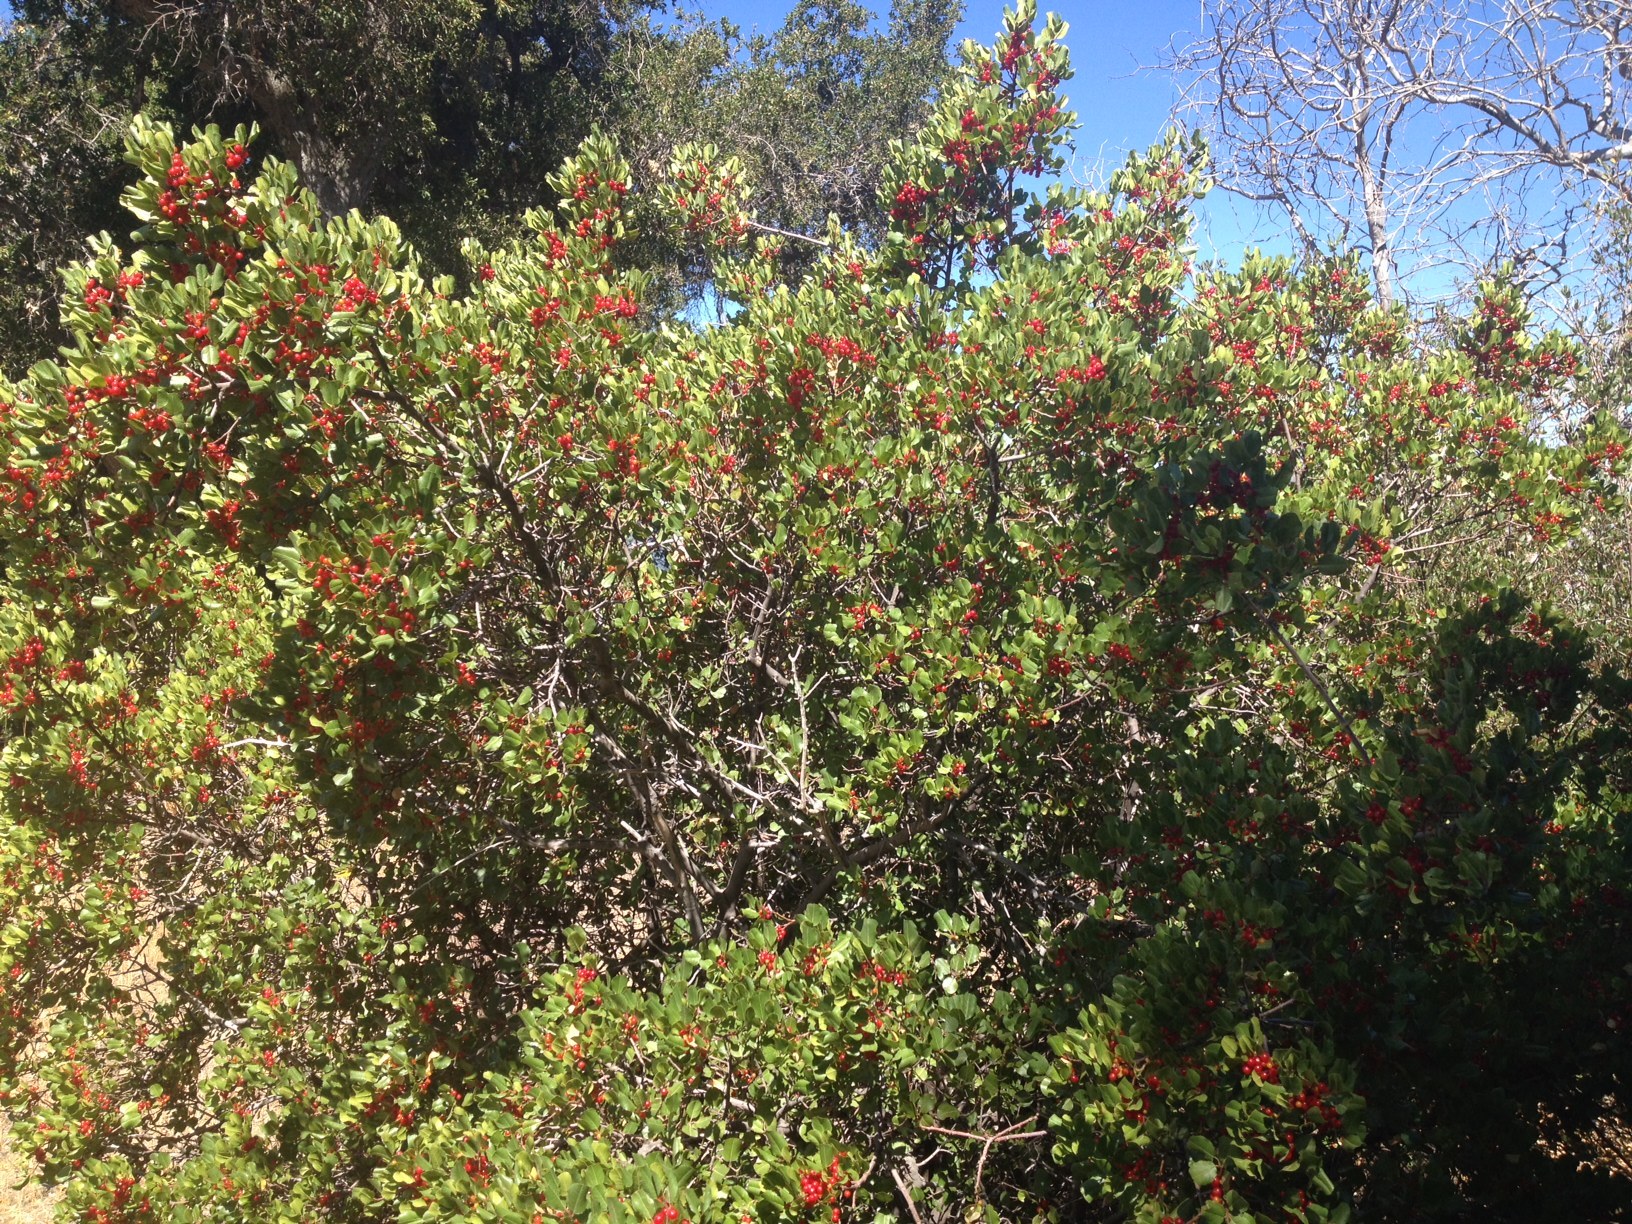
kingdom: Plantae
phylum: Tracheophyta
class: Magnoliopsida
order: Rosales
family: Rhamnaceae
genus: Endotropis
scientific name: Endotropis crocea
